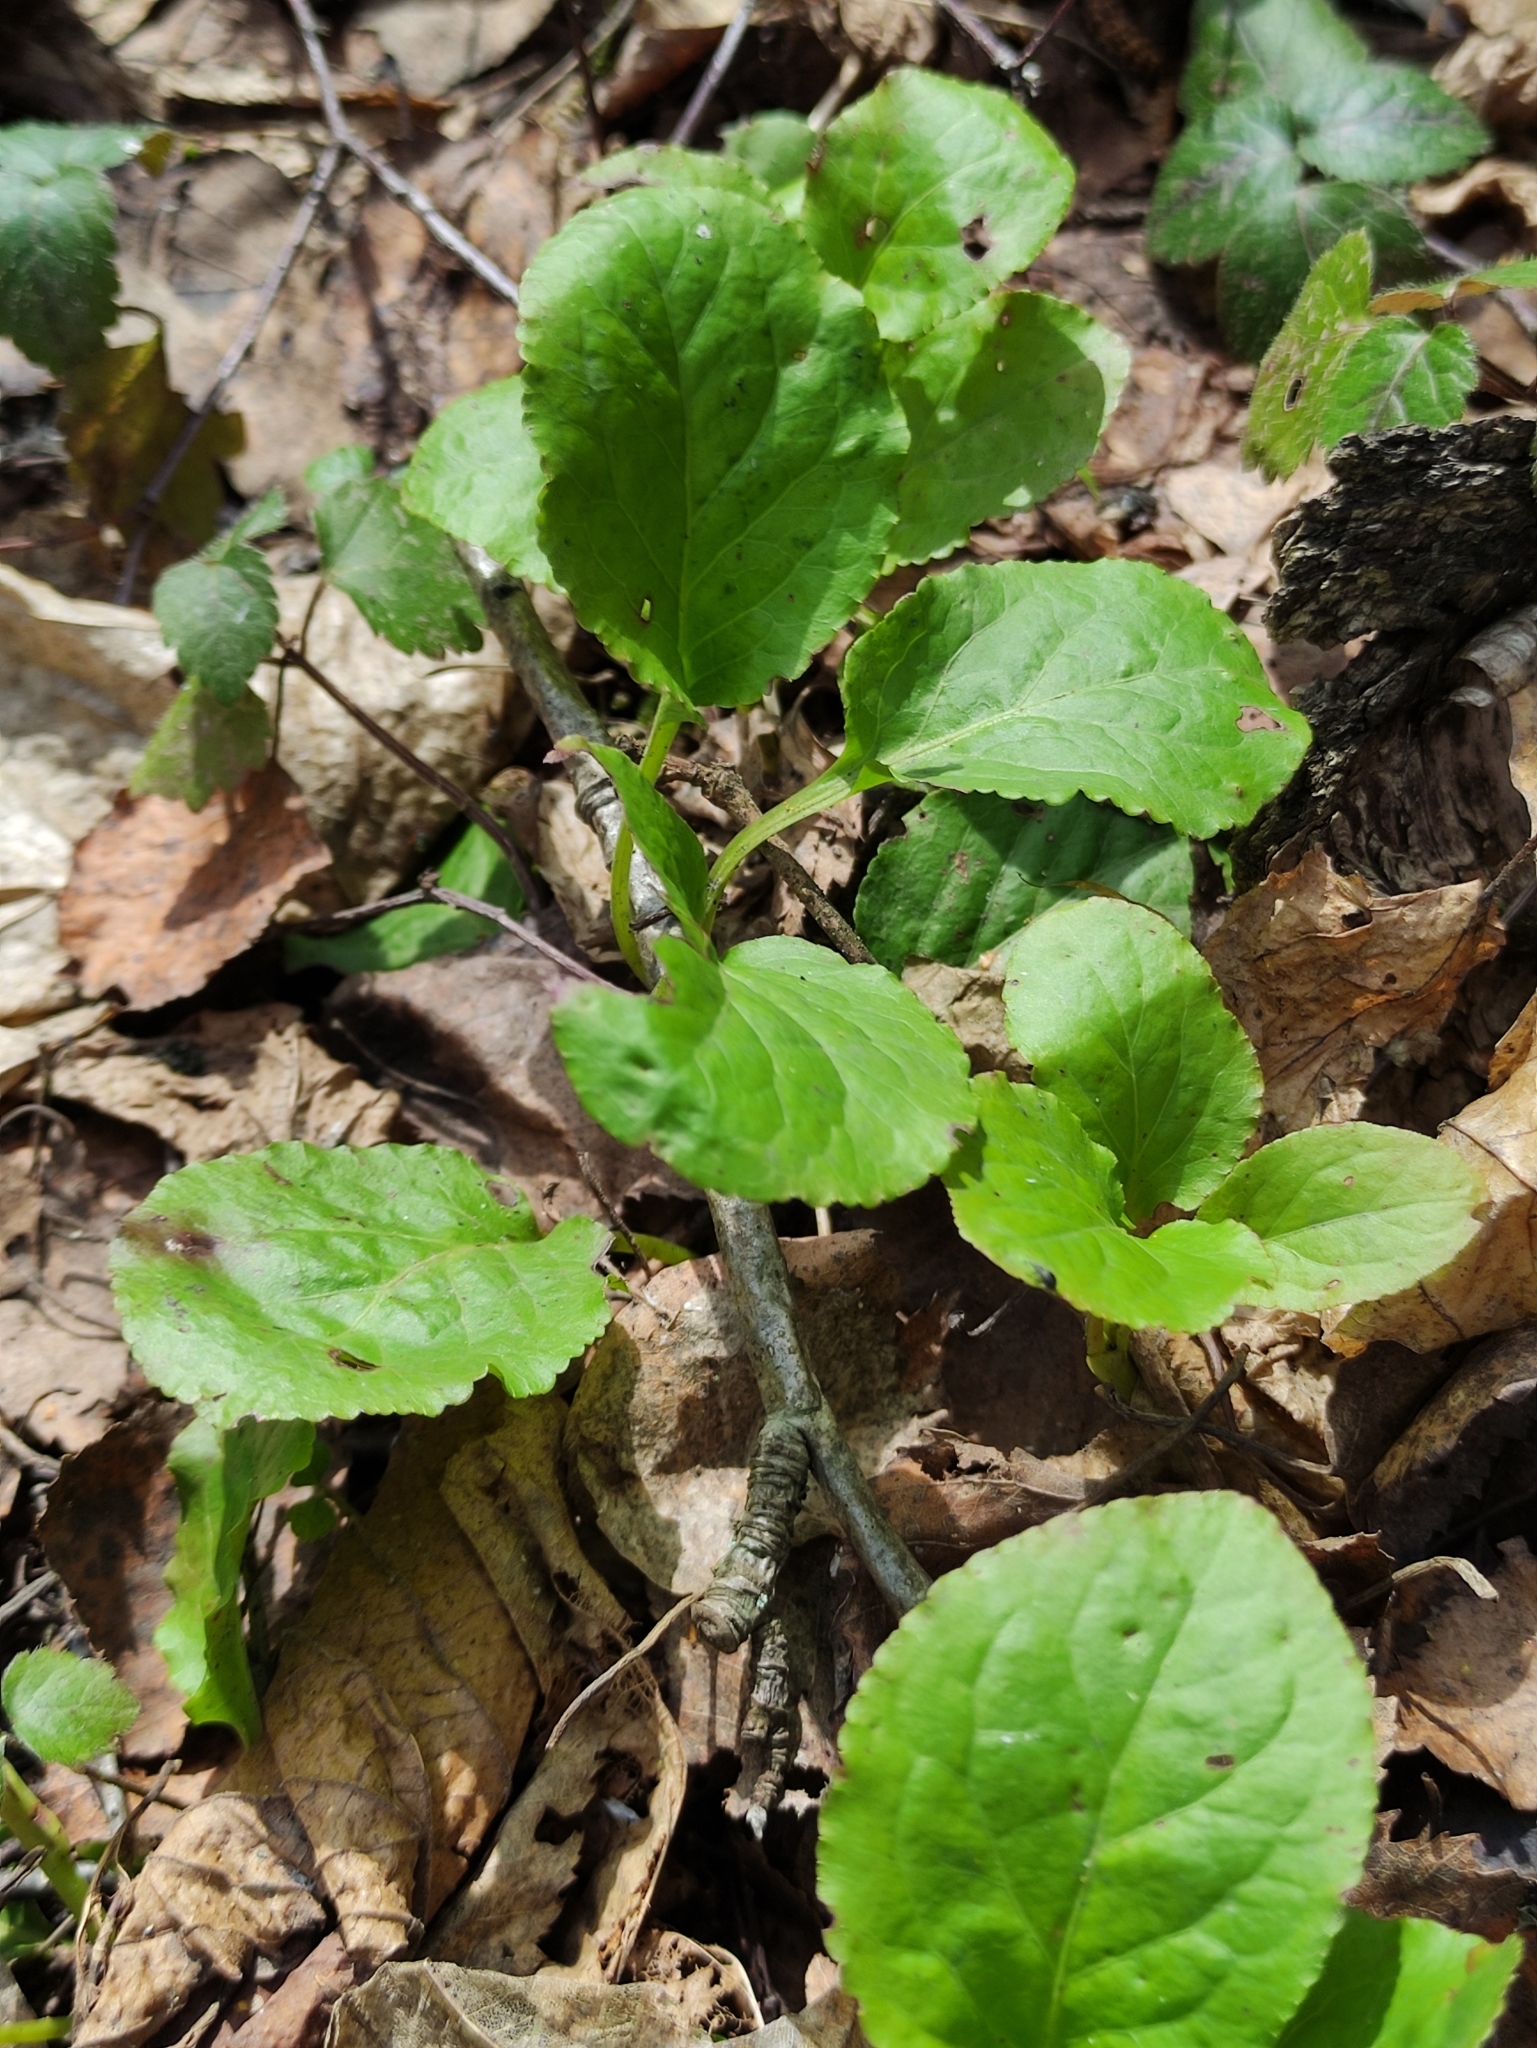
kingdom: Plantae
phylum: Tracheophyta
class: Magnoliopsida
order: Ericales
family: Ericaceae
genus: Pyrola
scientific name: Pyrola minor
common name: Common wintergreen
